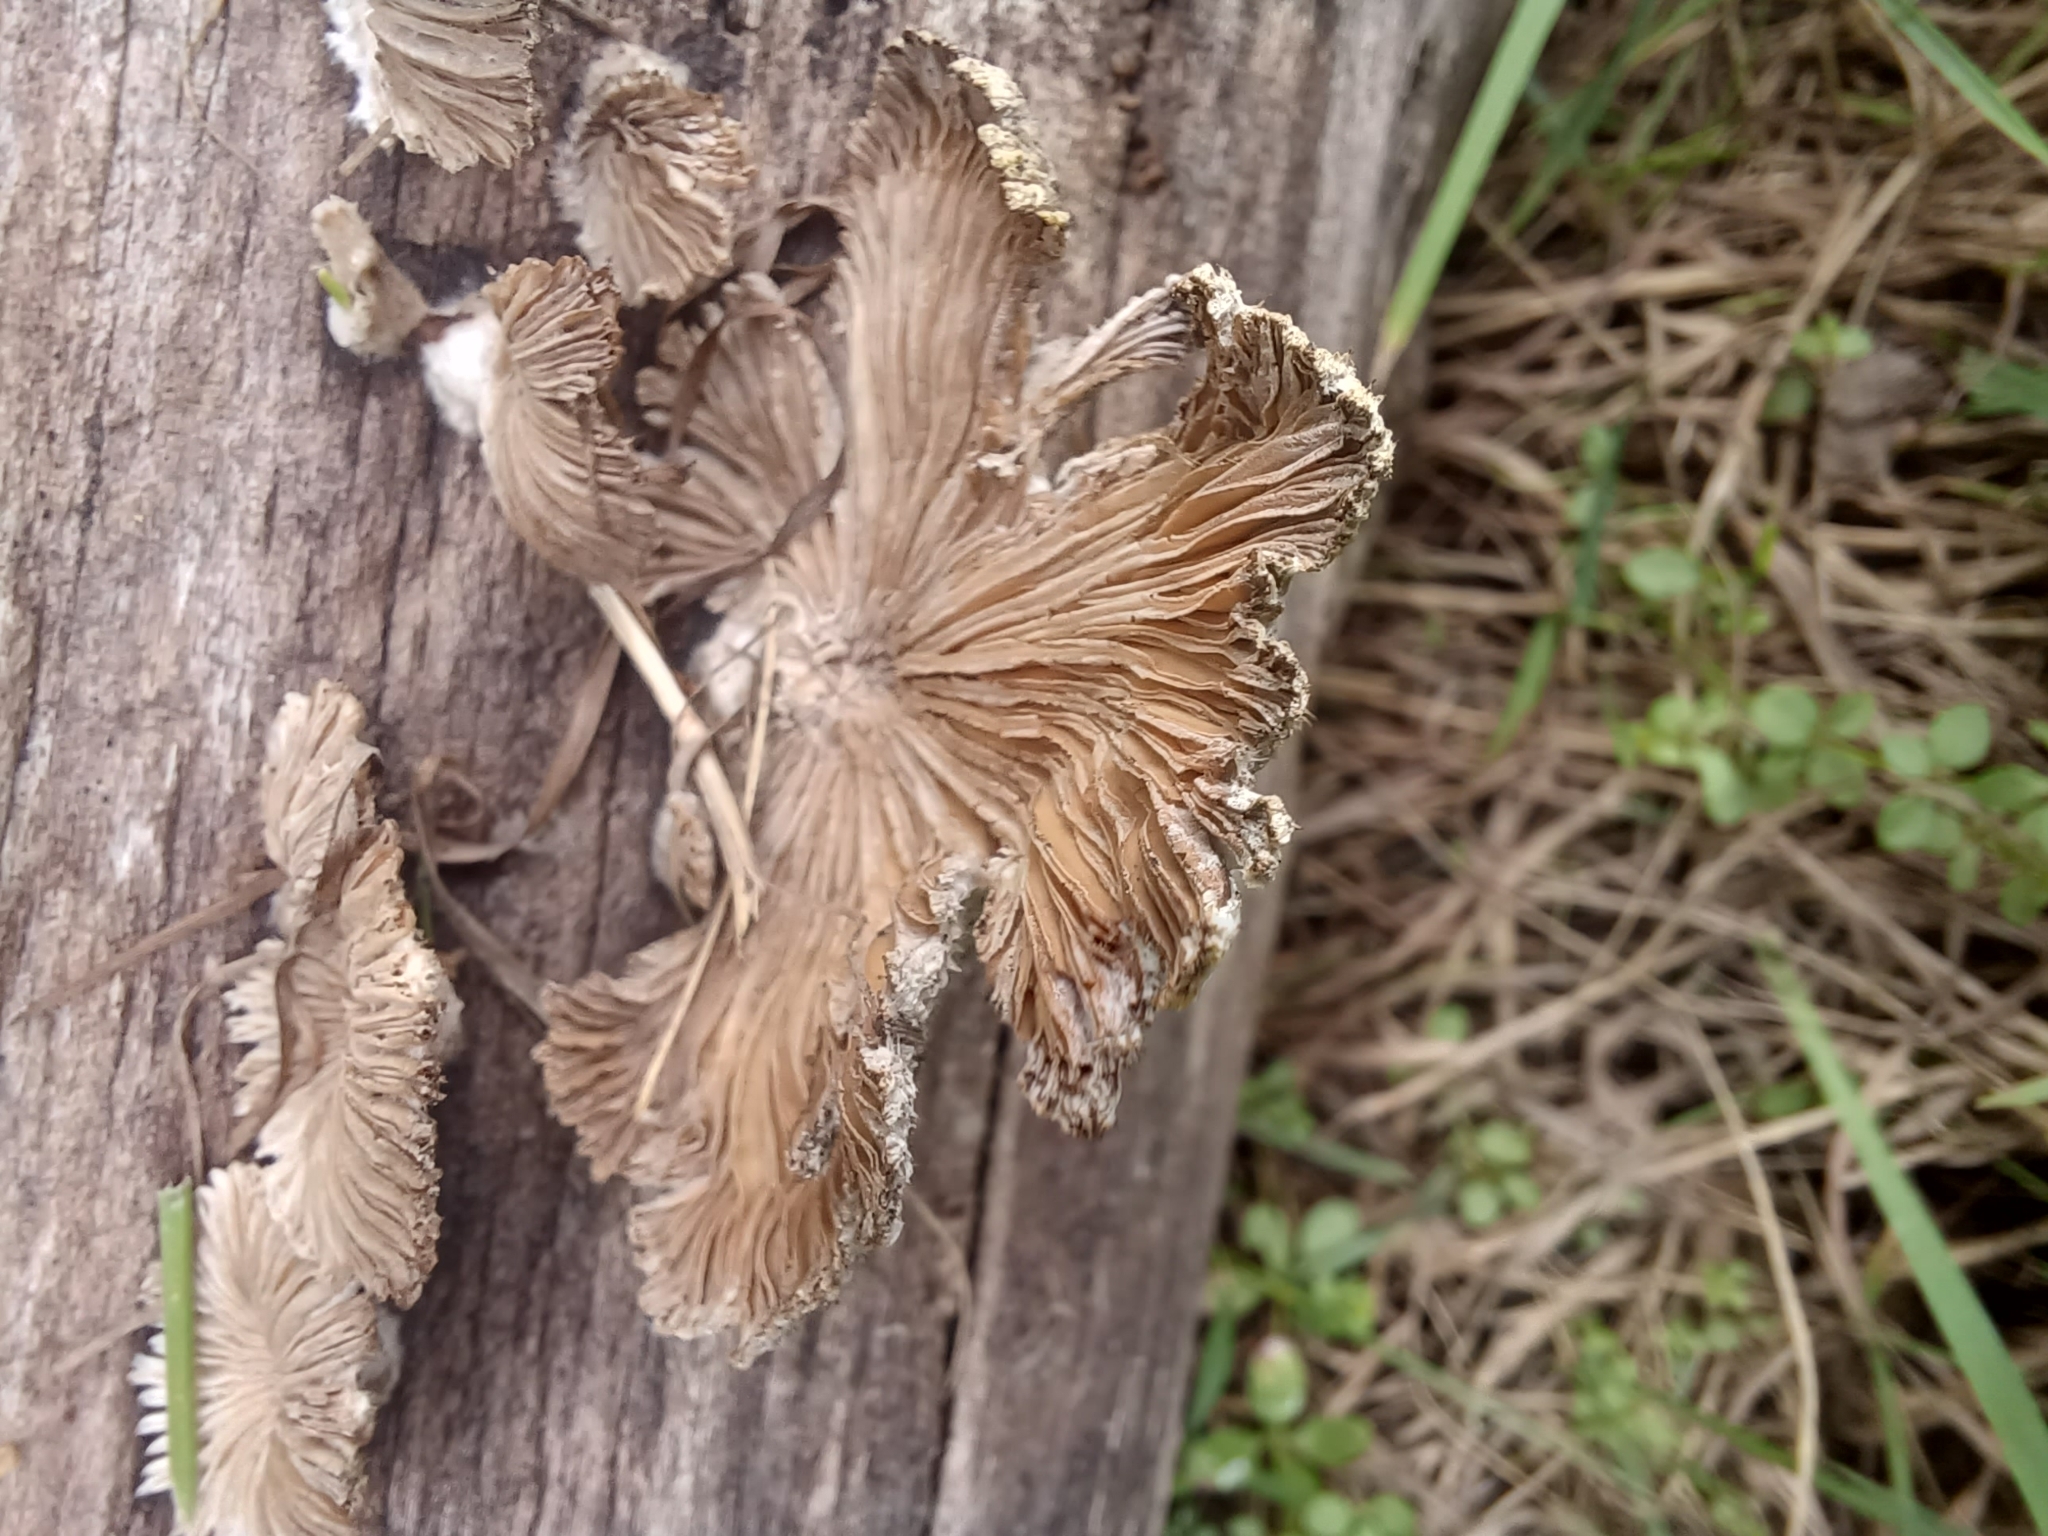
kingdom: Fungi
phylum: Basidiomycota
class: Agaricomycetes
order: Agaricales
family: Schizophyllaceae
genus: Schizophyllum
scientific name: Schizophyllum commune
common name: Common porecrust
